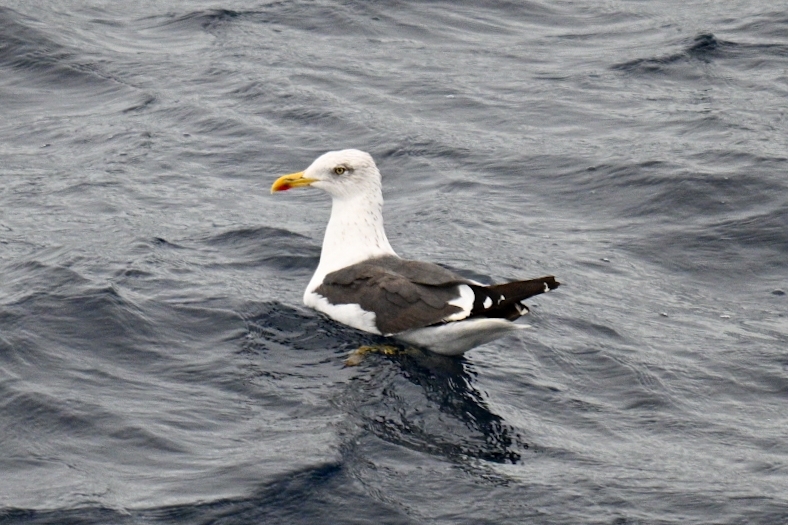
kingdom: Animalia
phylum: Chordata
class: Aves
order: Charadriiformes
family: Laridae
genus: Larus
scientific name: Larus fuscus
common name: Lesser black-backed gull
